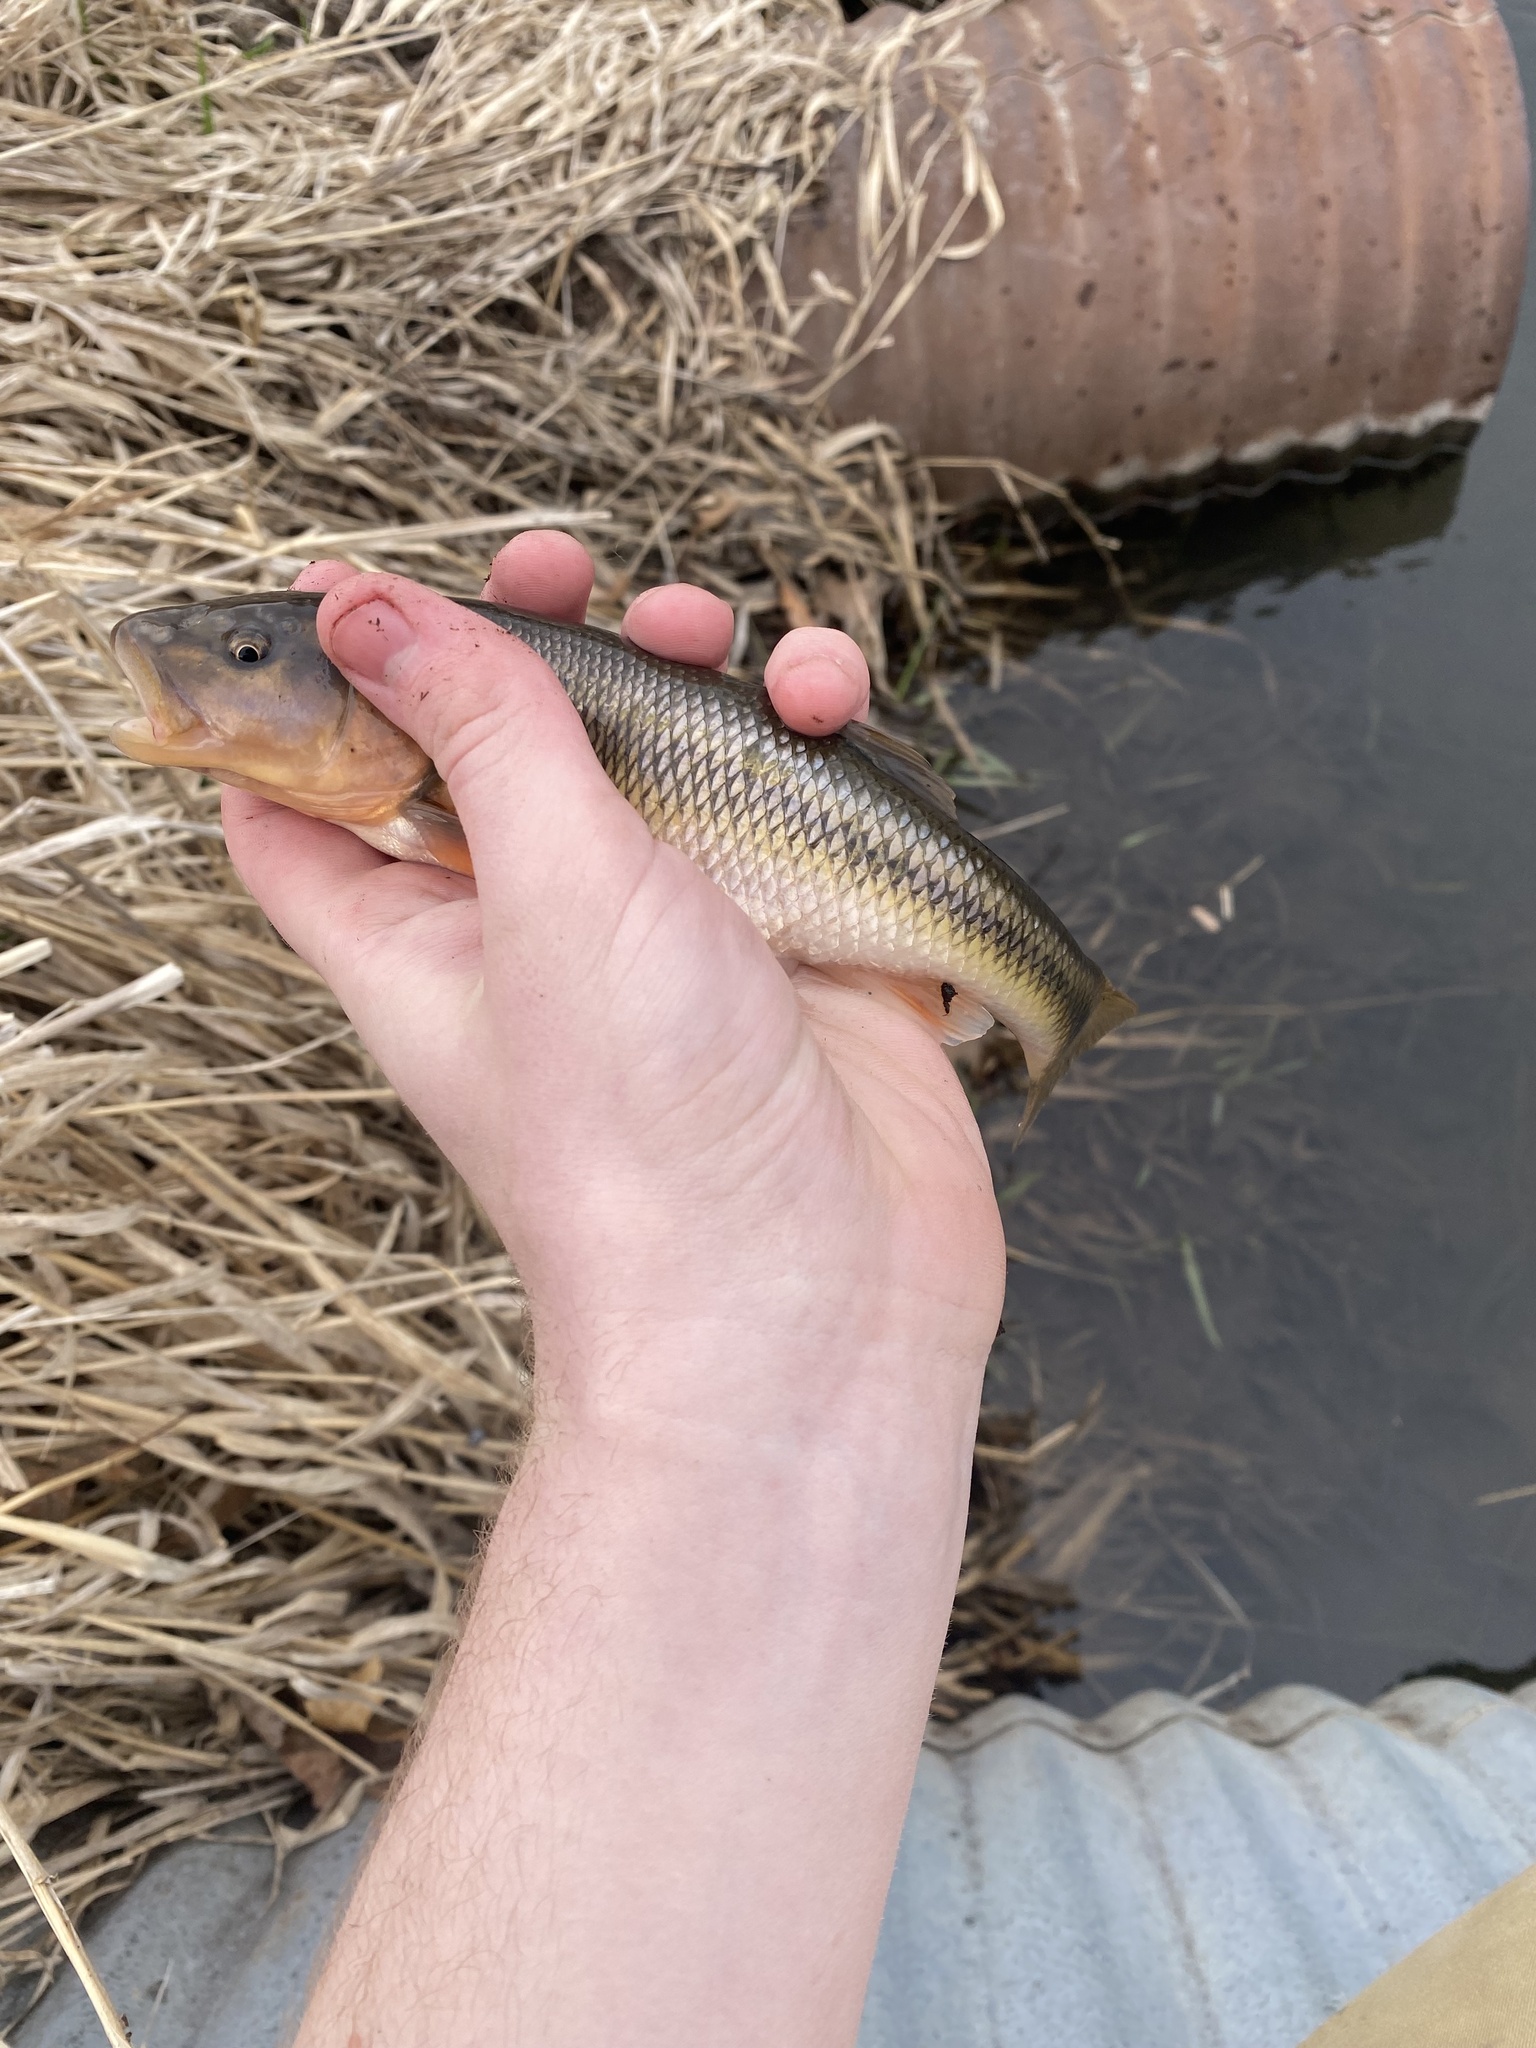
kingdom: Animalia
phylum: Chordata
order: Cypriniformes
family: Cyprinidae
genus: Semotilus
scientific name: Semotilus atromaculatus
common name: Creek chub
